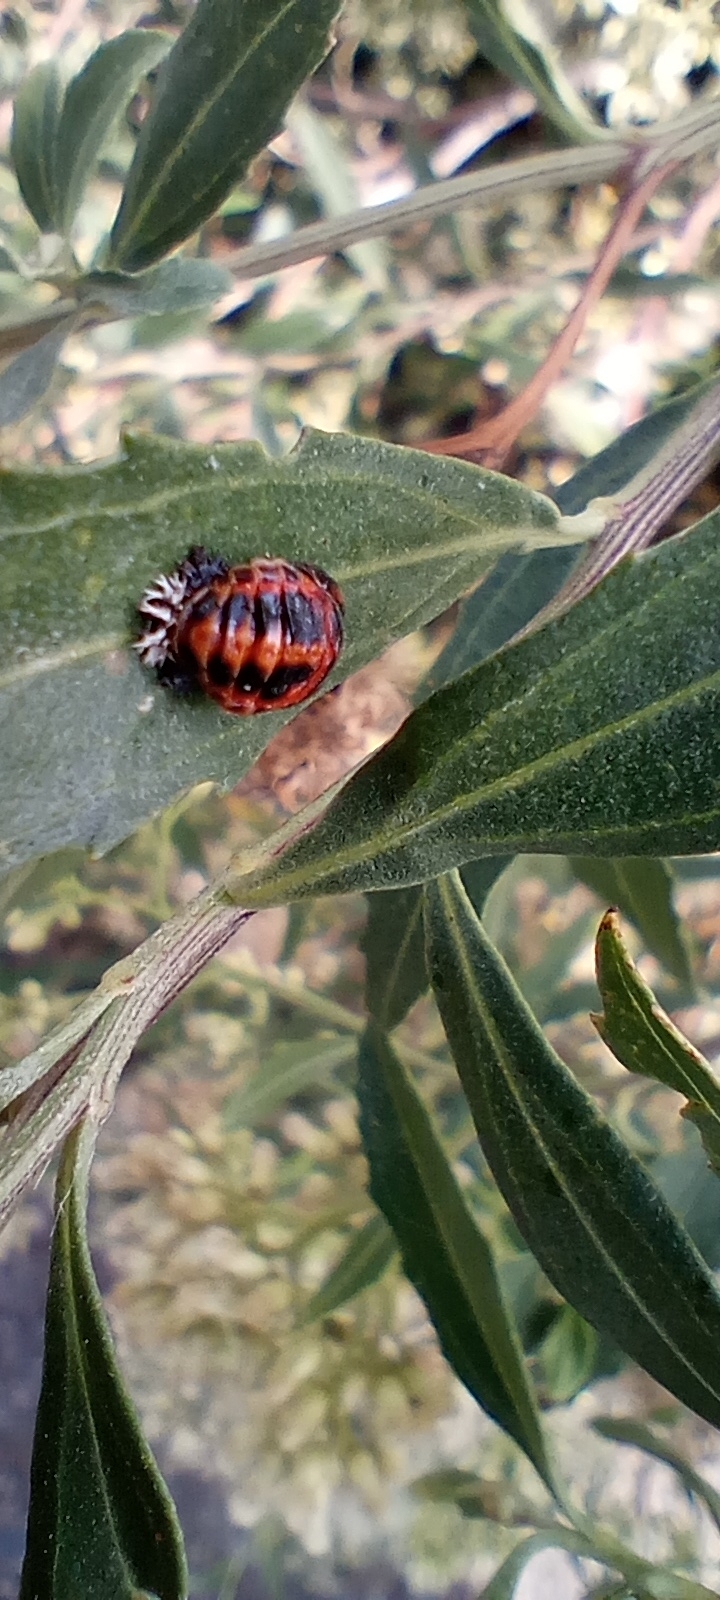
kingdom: Animalia
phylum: Arthropoda
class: Insecta
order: Coleoptera
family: Coccinellidae
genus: Harmonia
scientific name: Harmonia axyridis
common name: Harlequin ladybird
